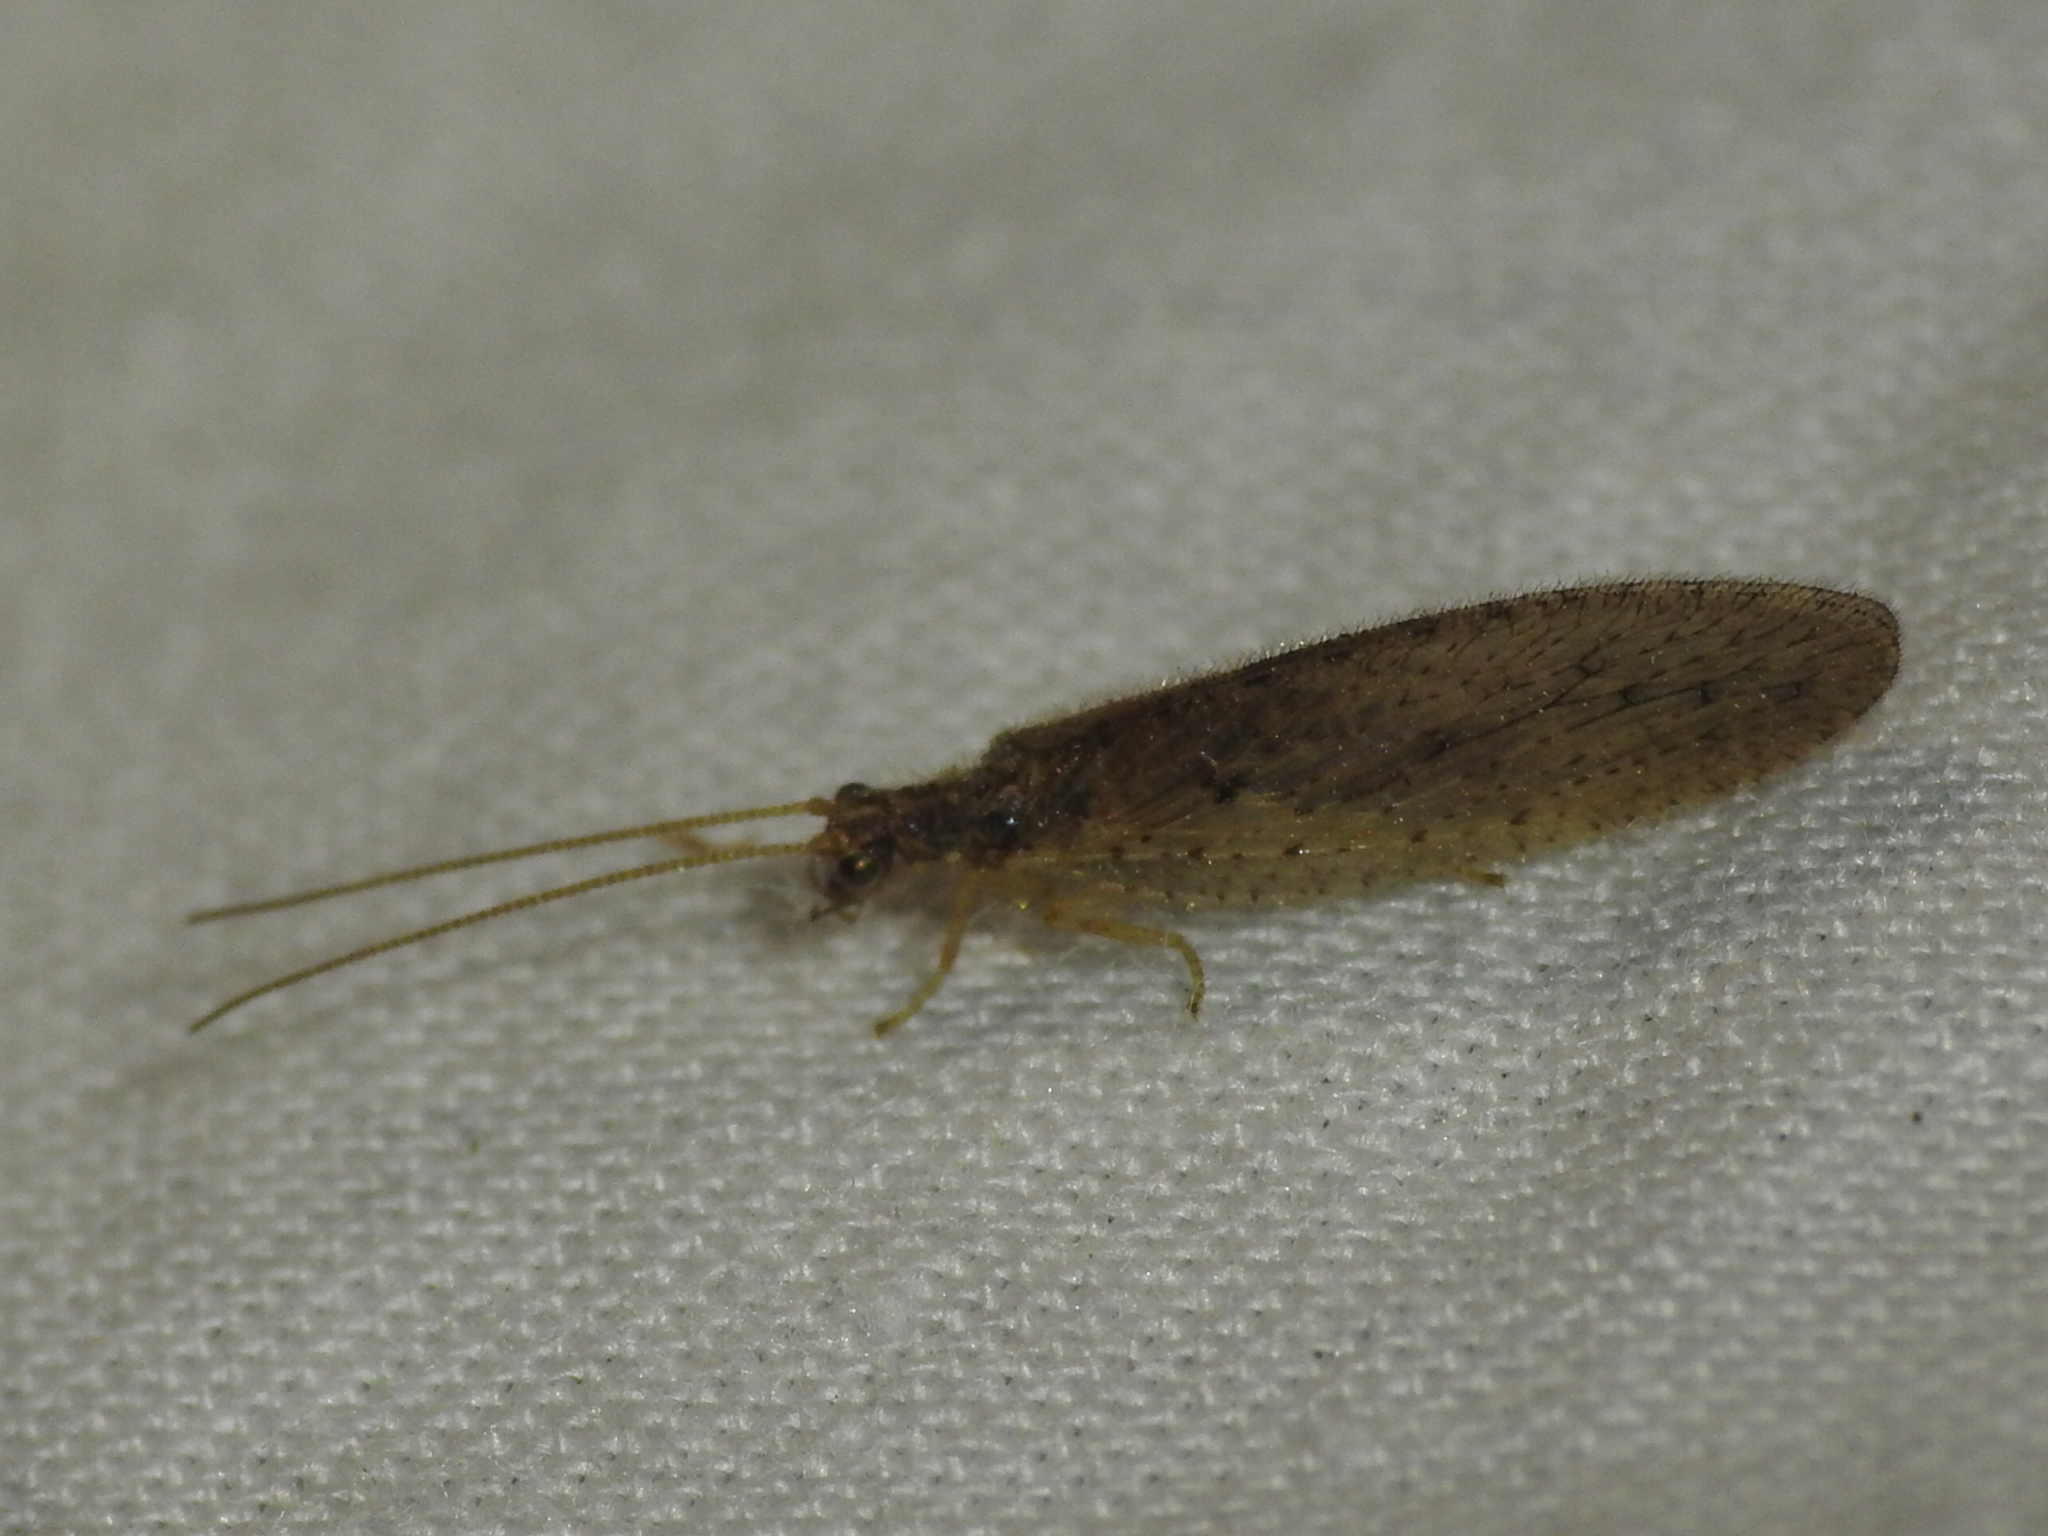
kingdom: Animalia
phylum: Arthropoda
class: Insecta
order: Neuroptera
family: Hemerobiidae
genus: Micromus
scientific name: Micromus subanticus
